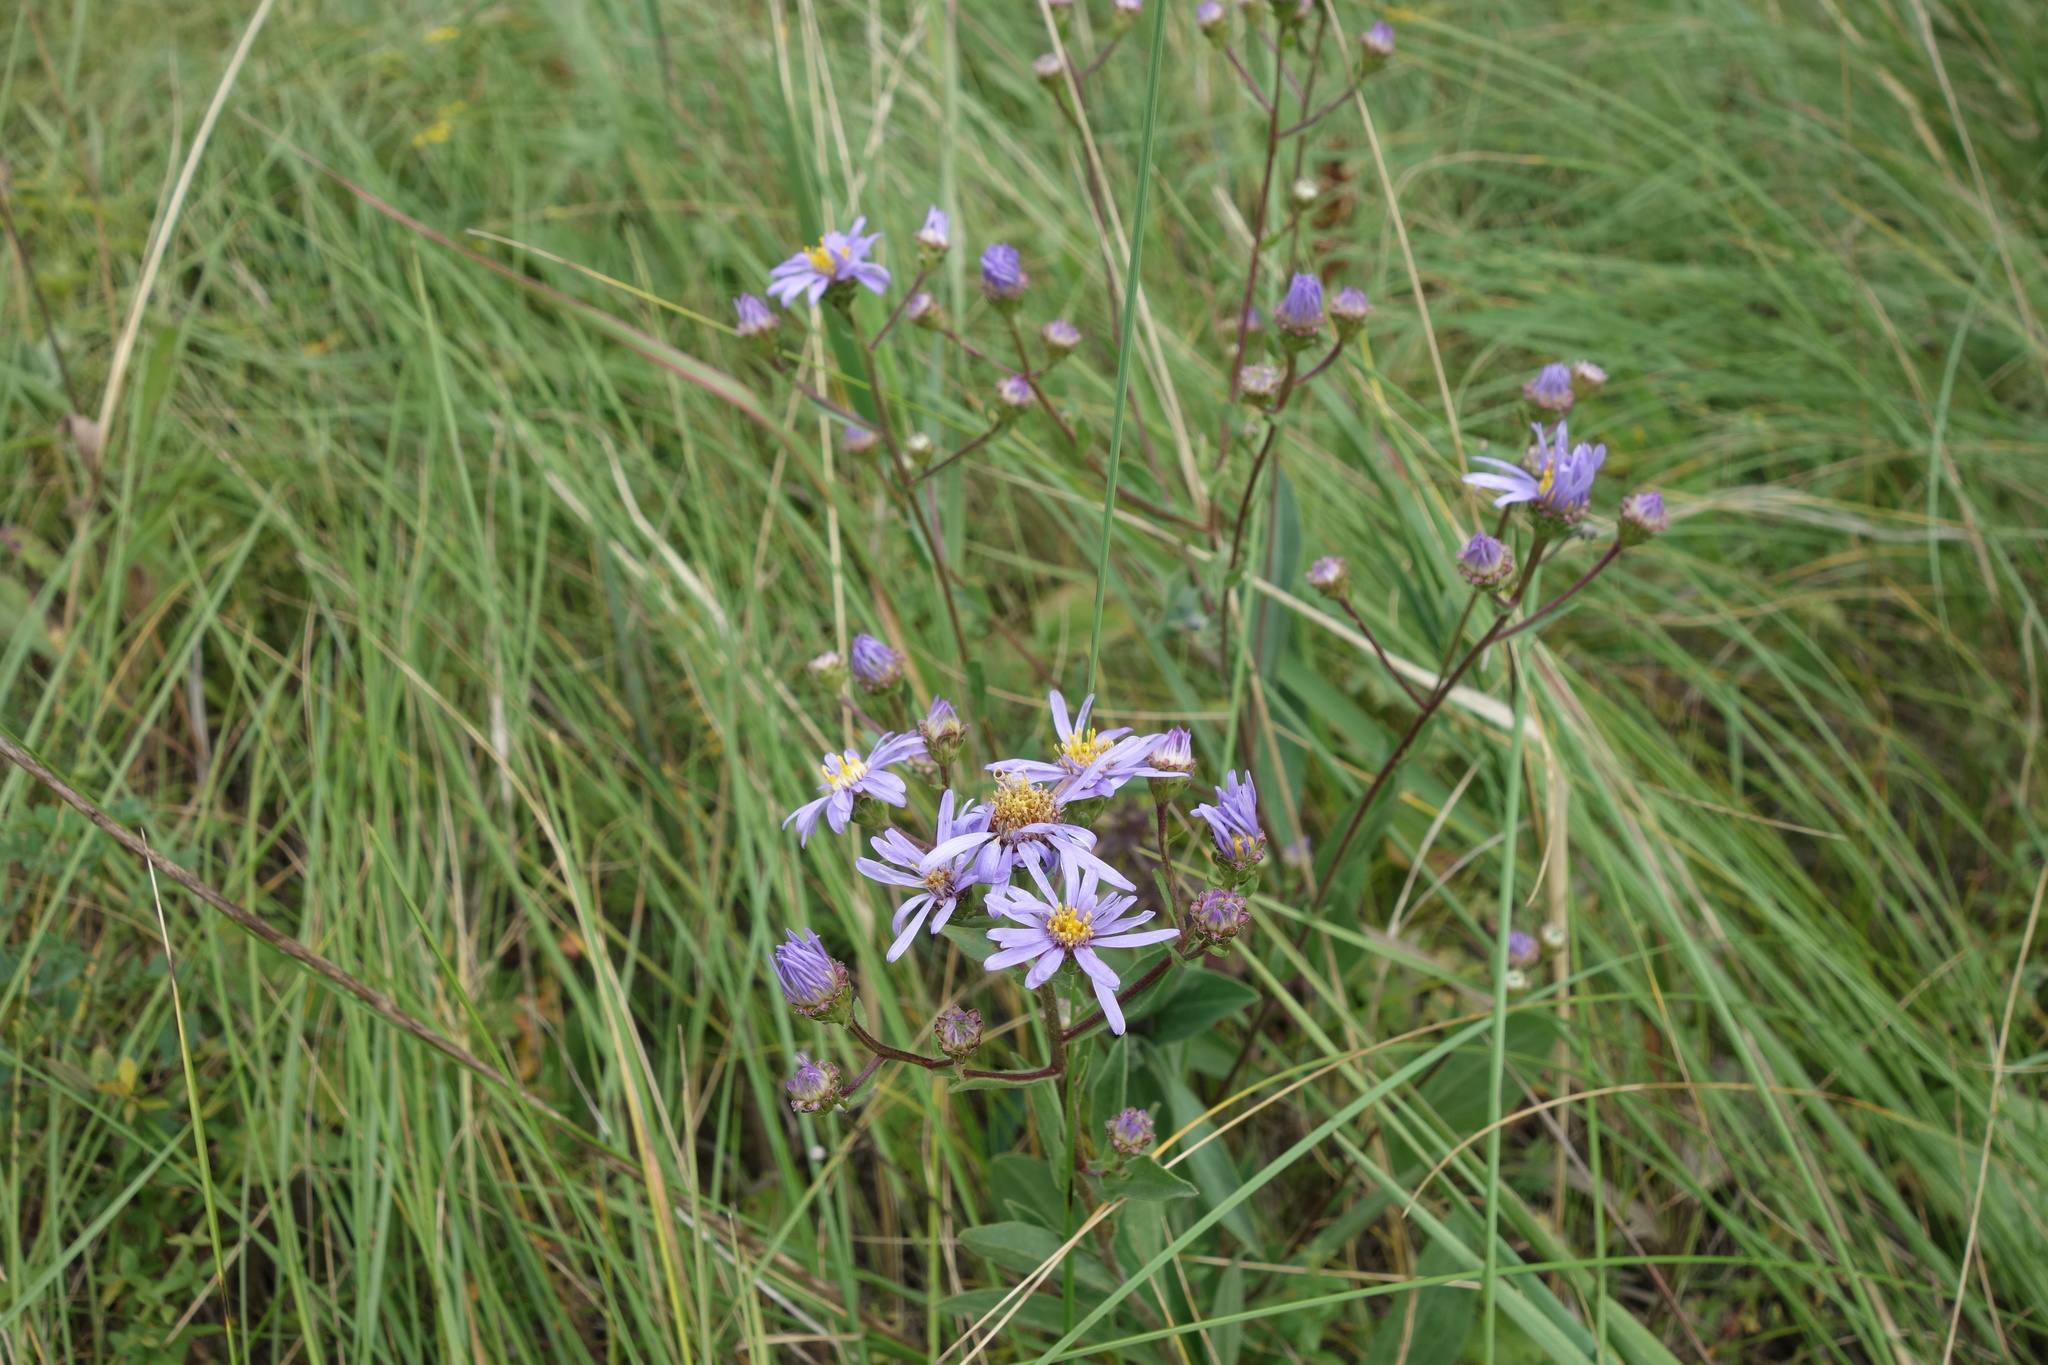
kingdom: Plantae
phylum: Tracheophyta
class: Magnoliopsida
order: Asterales
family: Asteraceae
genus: Aster
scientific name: Aster amellus
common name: European michaelmas daisy
